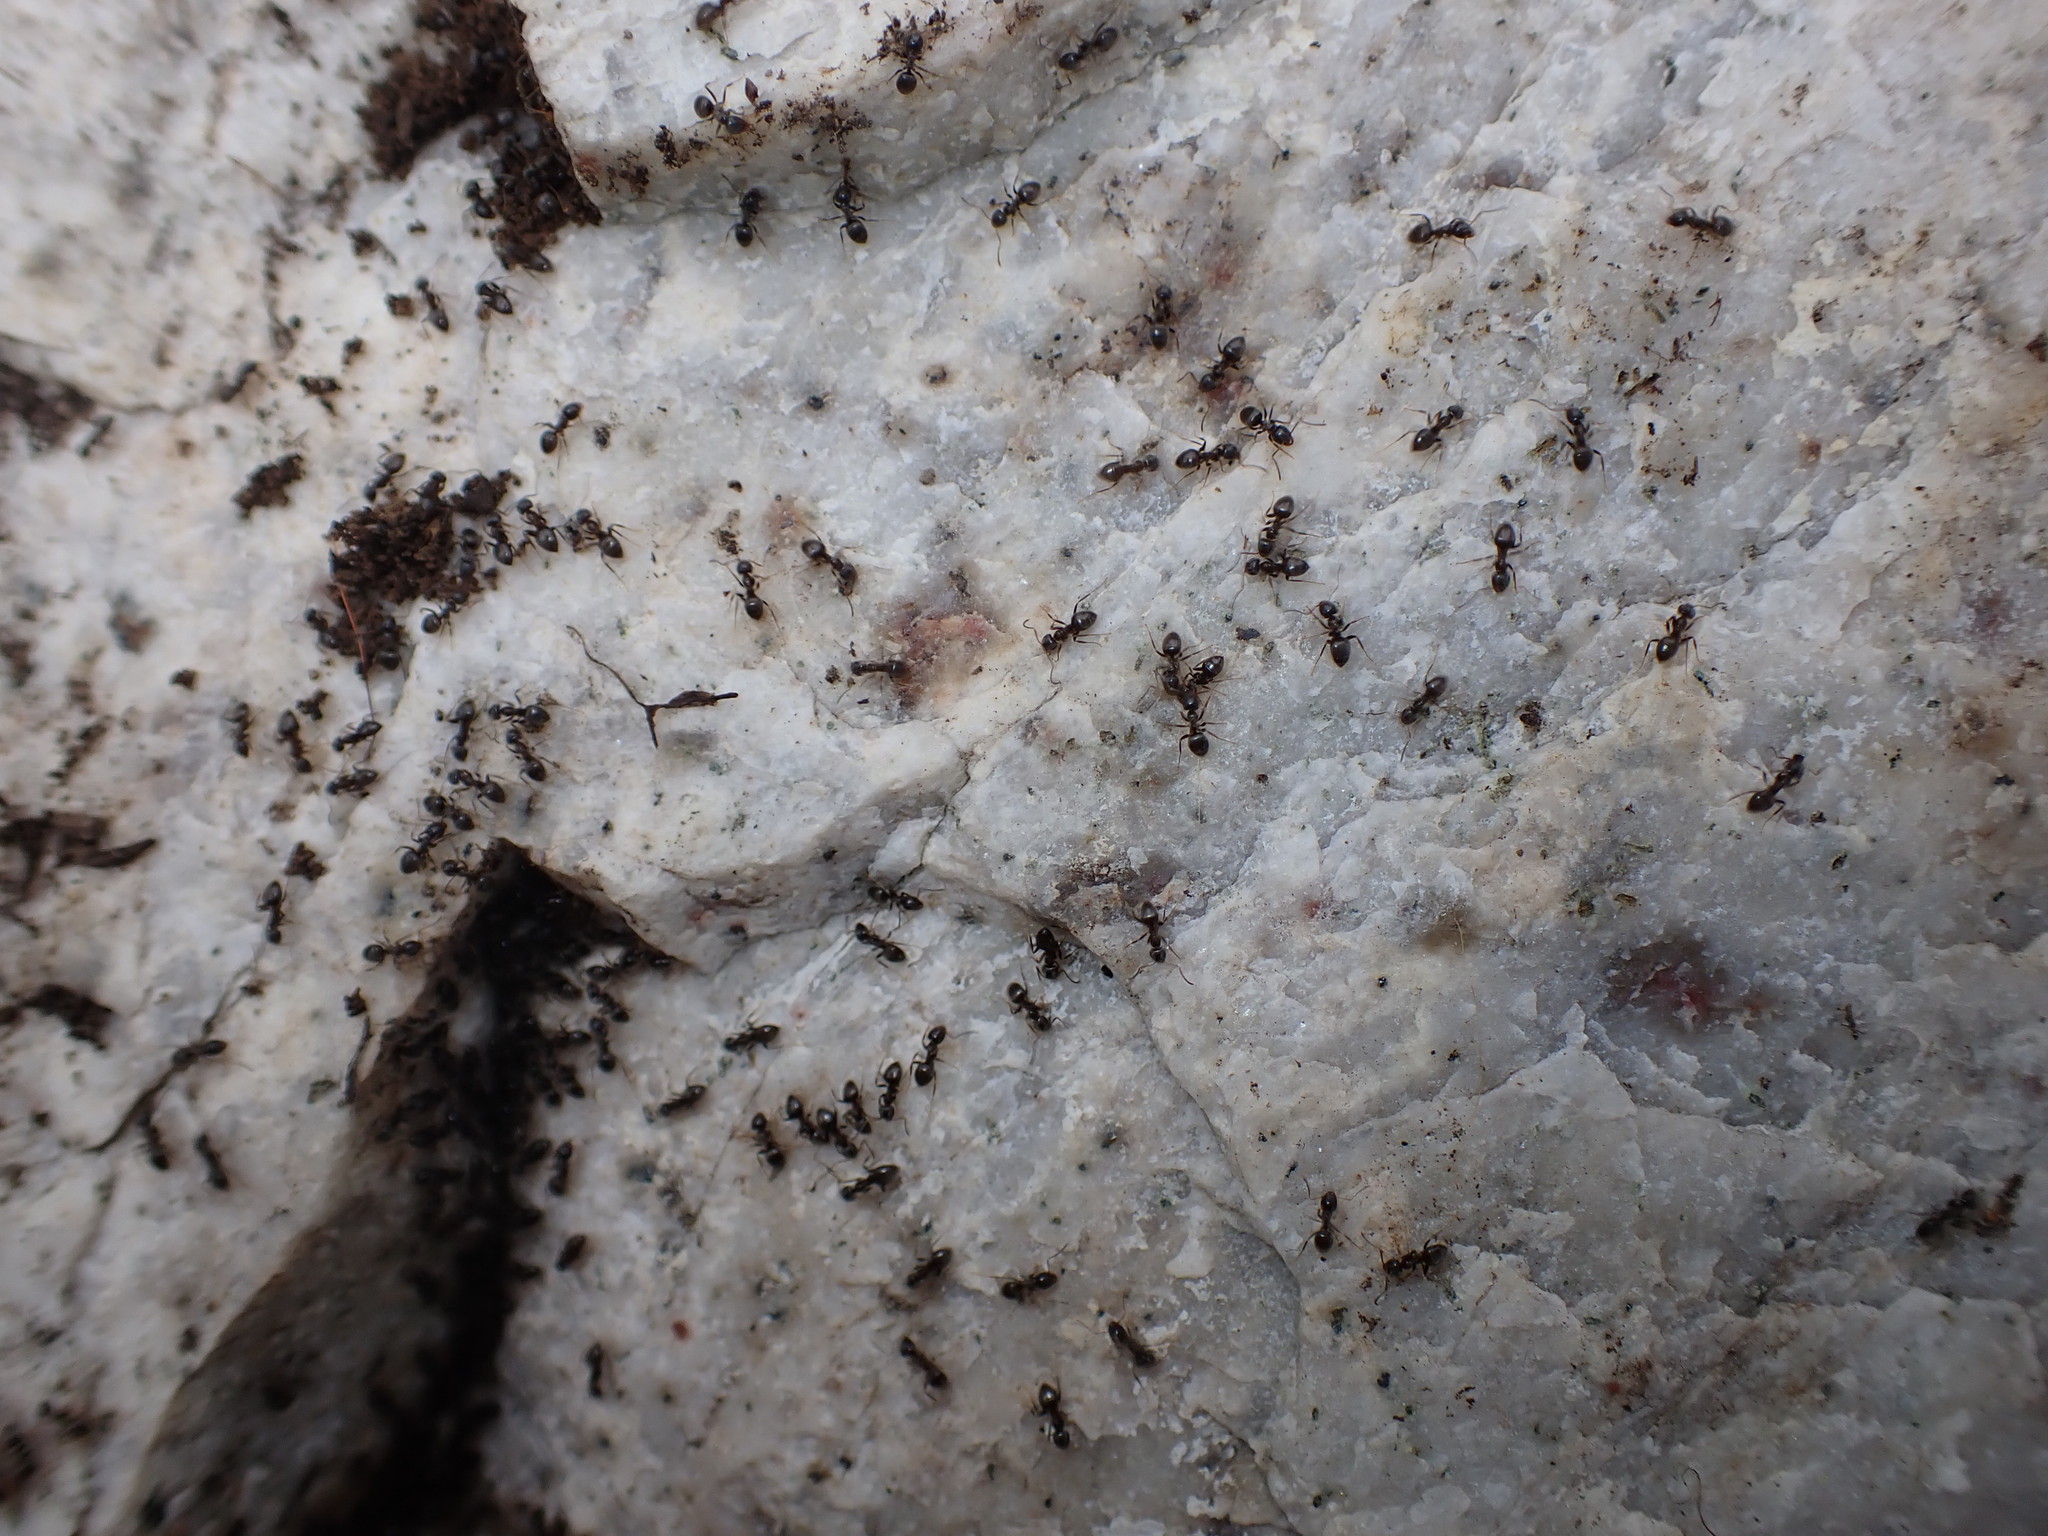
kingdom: Animalia
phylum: Arthropoda
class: Insecta
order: Hymenoptera
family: Formicidae
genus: Tapinoma
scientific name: Tapinoma sessile
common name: Odorous house ant
